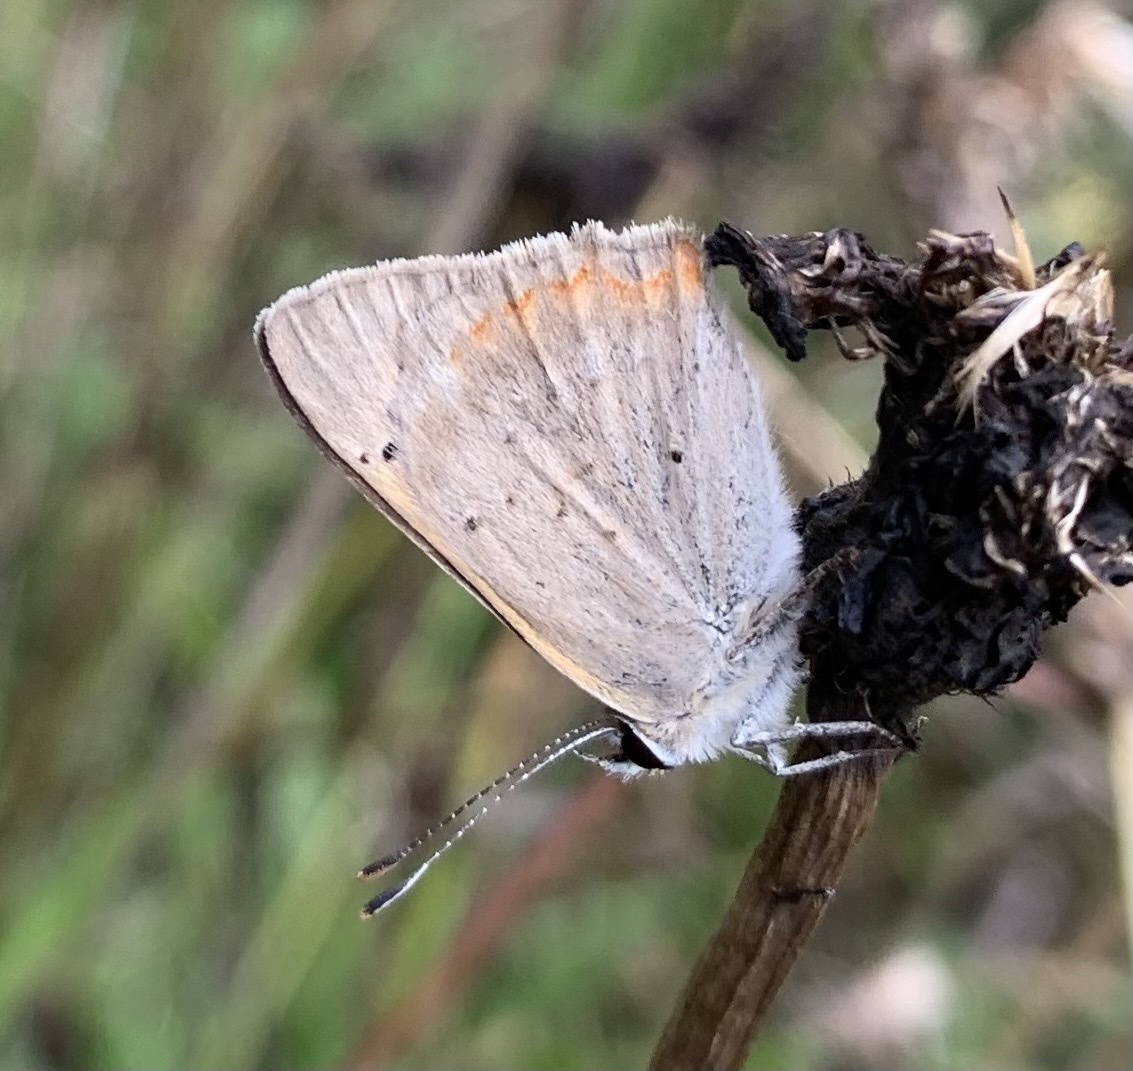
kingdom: Animalia
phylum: Arthropoda
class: Insecta
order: Lepidoptera
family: Lycaenidae
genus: Lycaena
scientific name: Lycaena phlaeas
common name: Small copper
